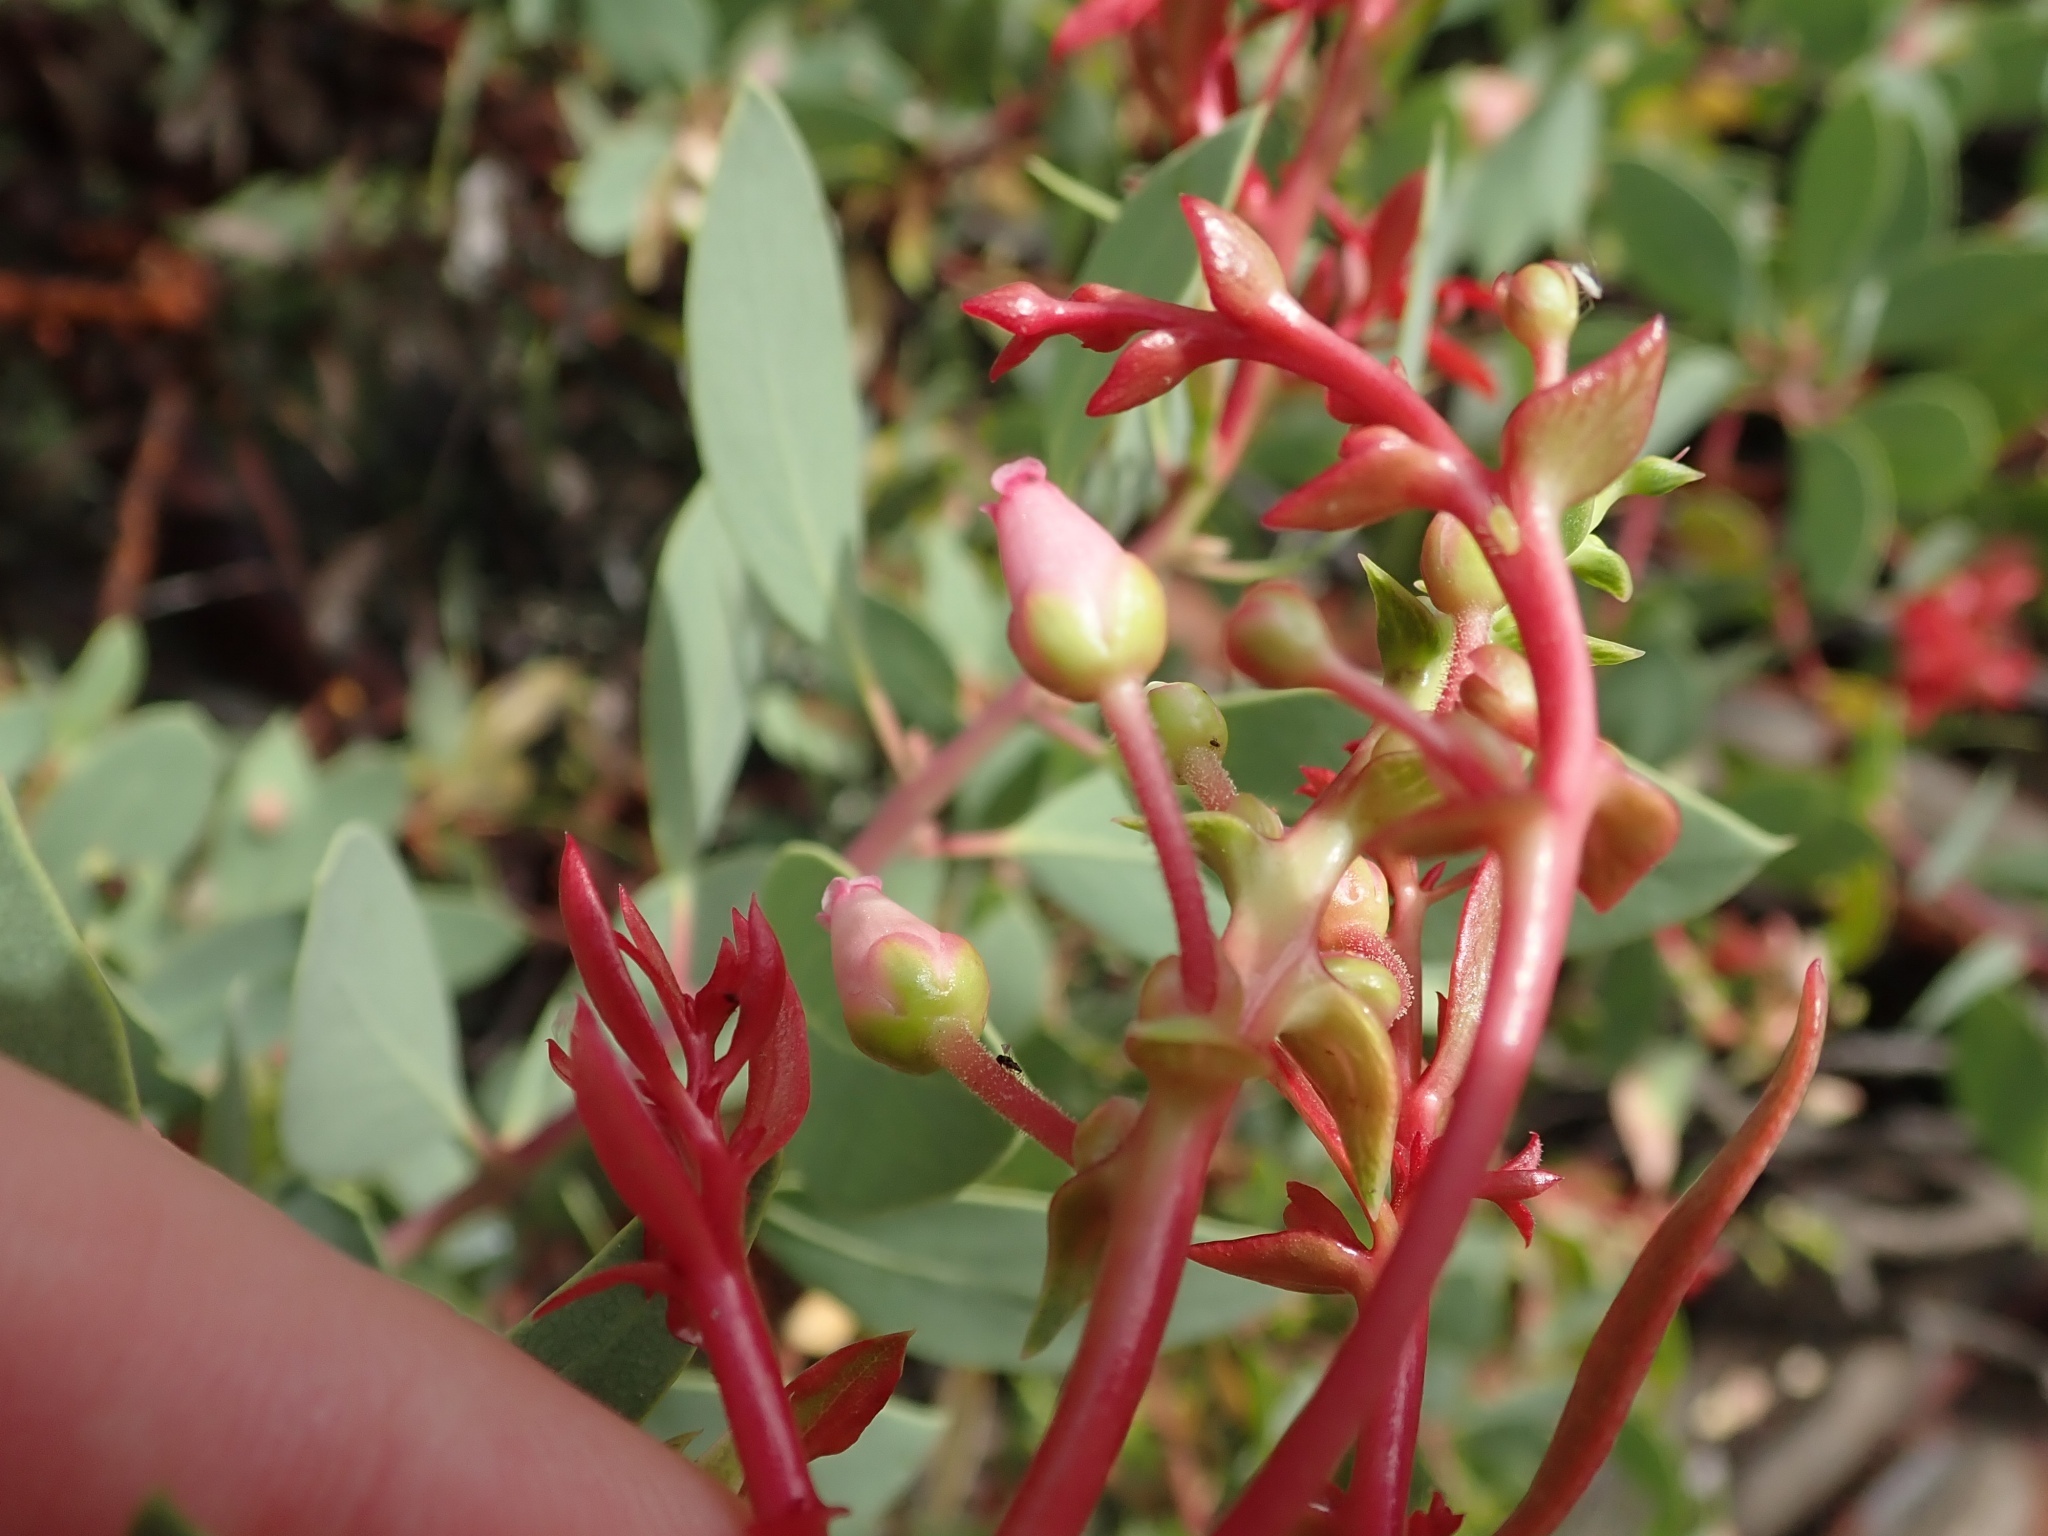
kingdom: Plantae
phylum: Tracheophyta
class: Magnoliopsida
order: Ericales
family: Ericaceae
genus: Arctostaphylos
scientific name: Arctostaphylos glauca
